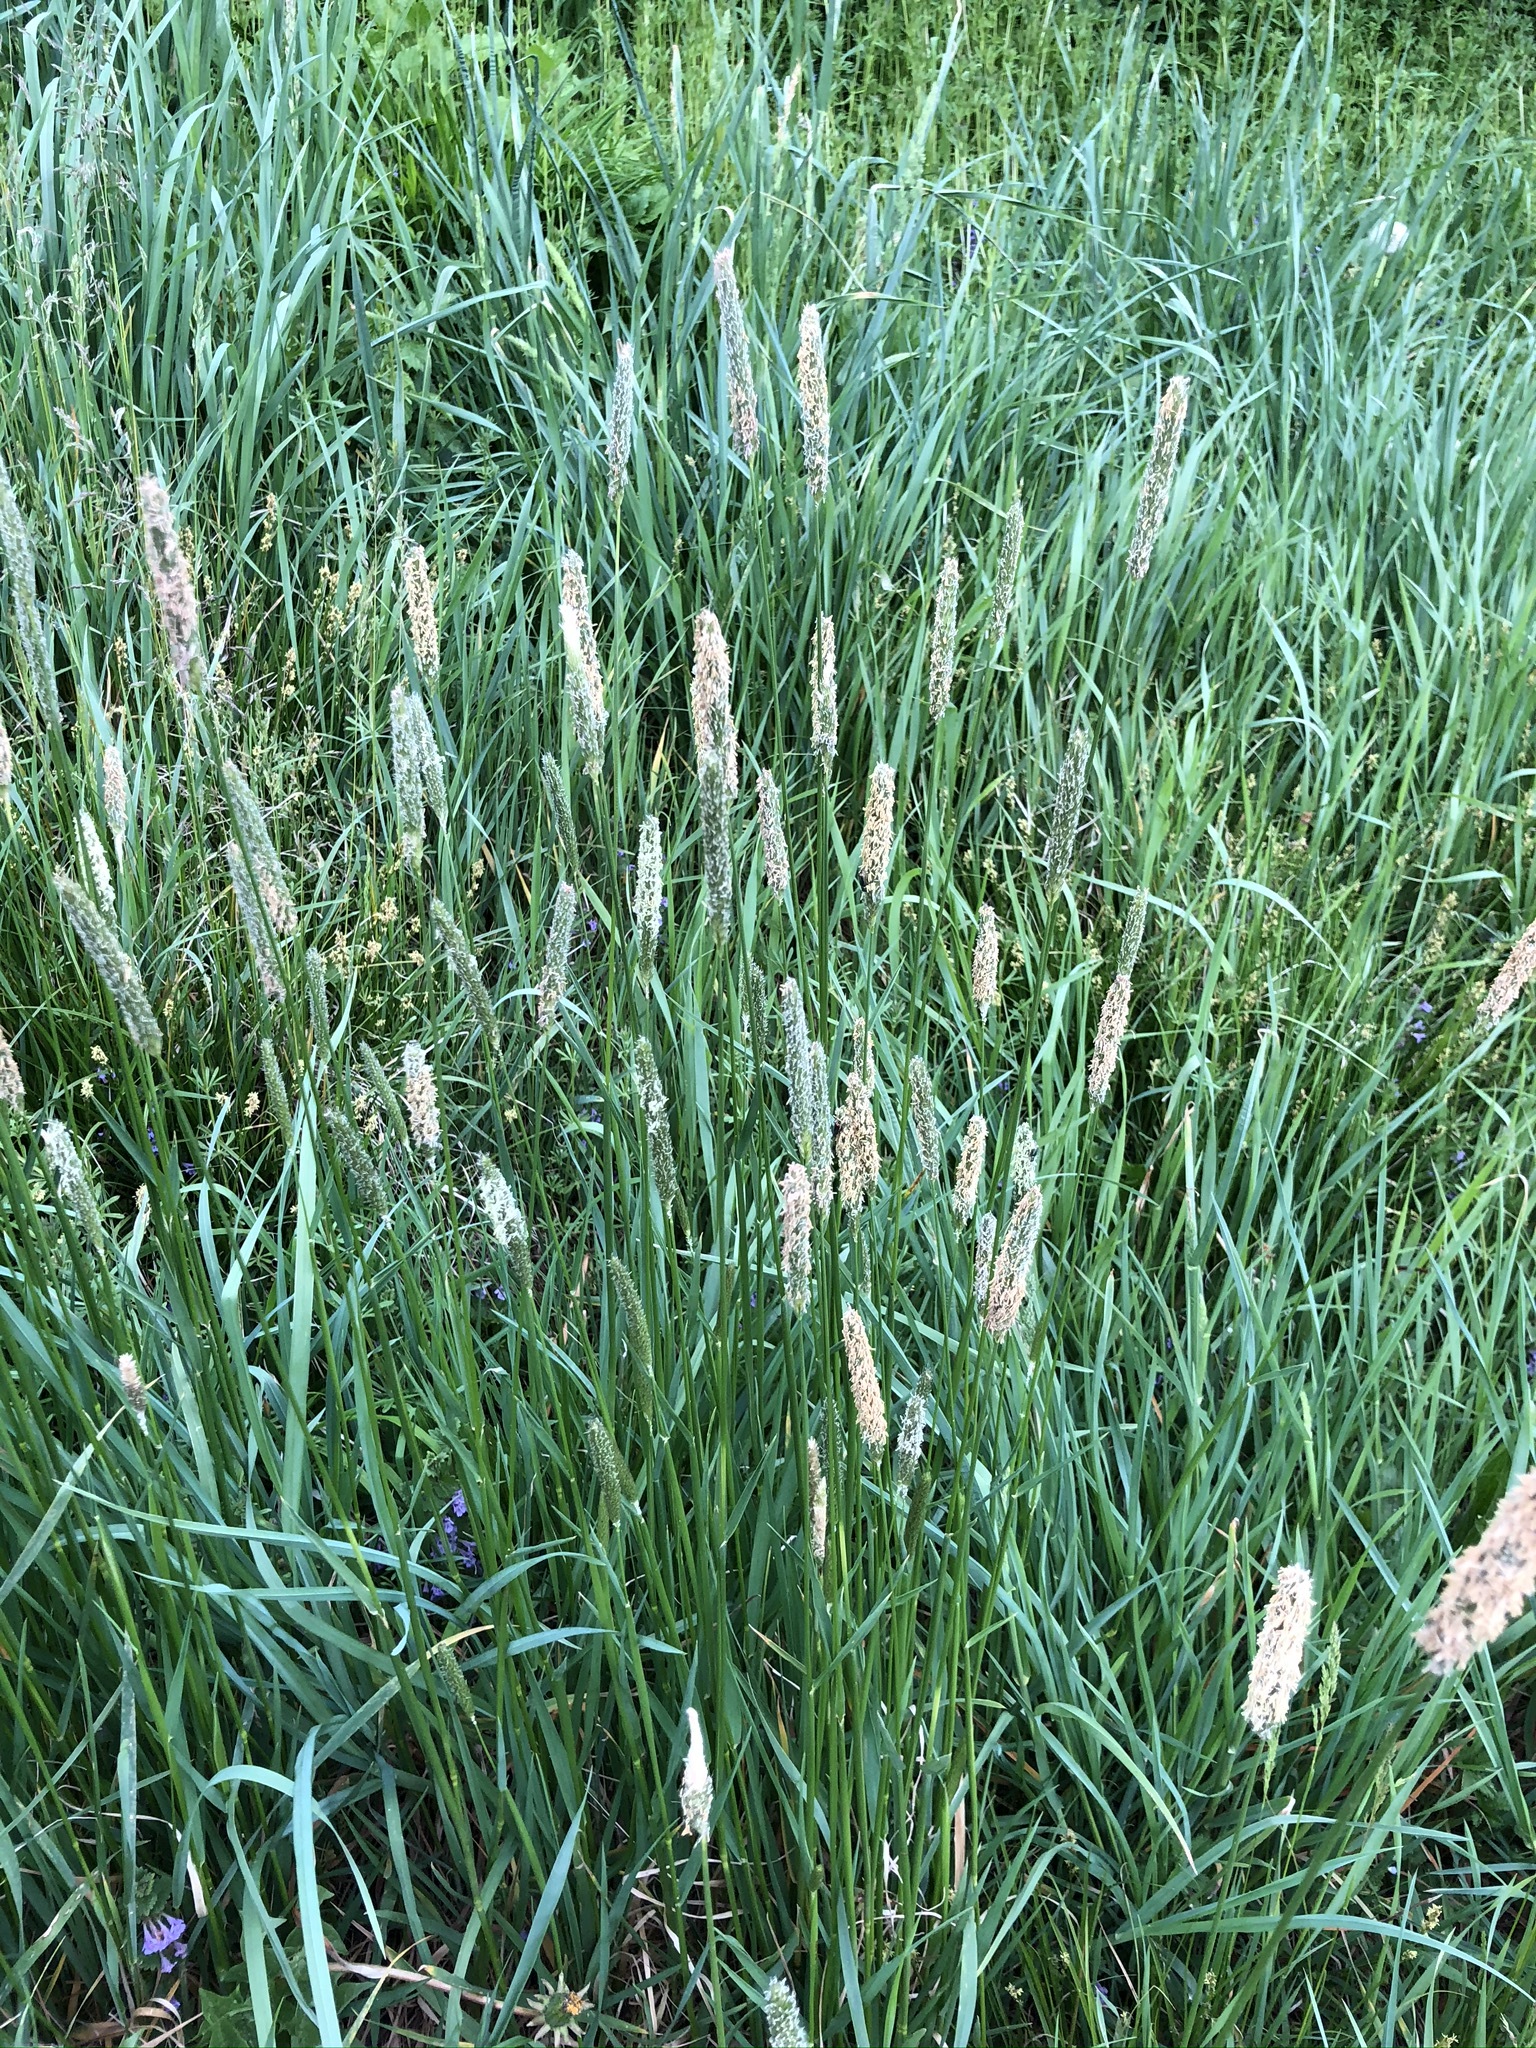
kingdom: Plantae
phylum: Tracheophyta
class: Liliopsida
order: Poales
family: Poaceae
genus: Alopecurus
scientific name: Alopecurus pratensis
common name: Meadow foxtail
